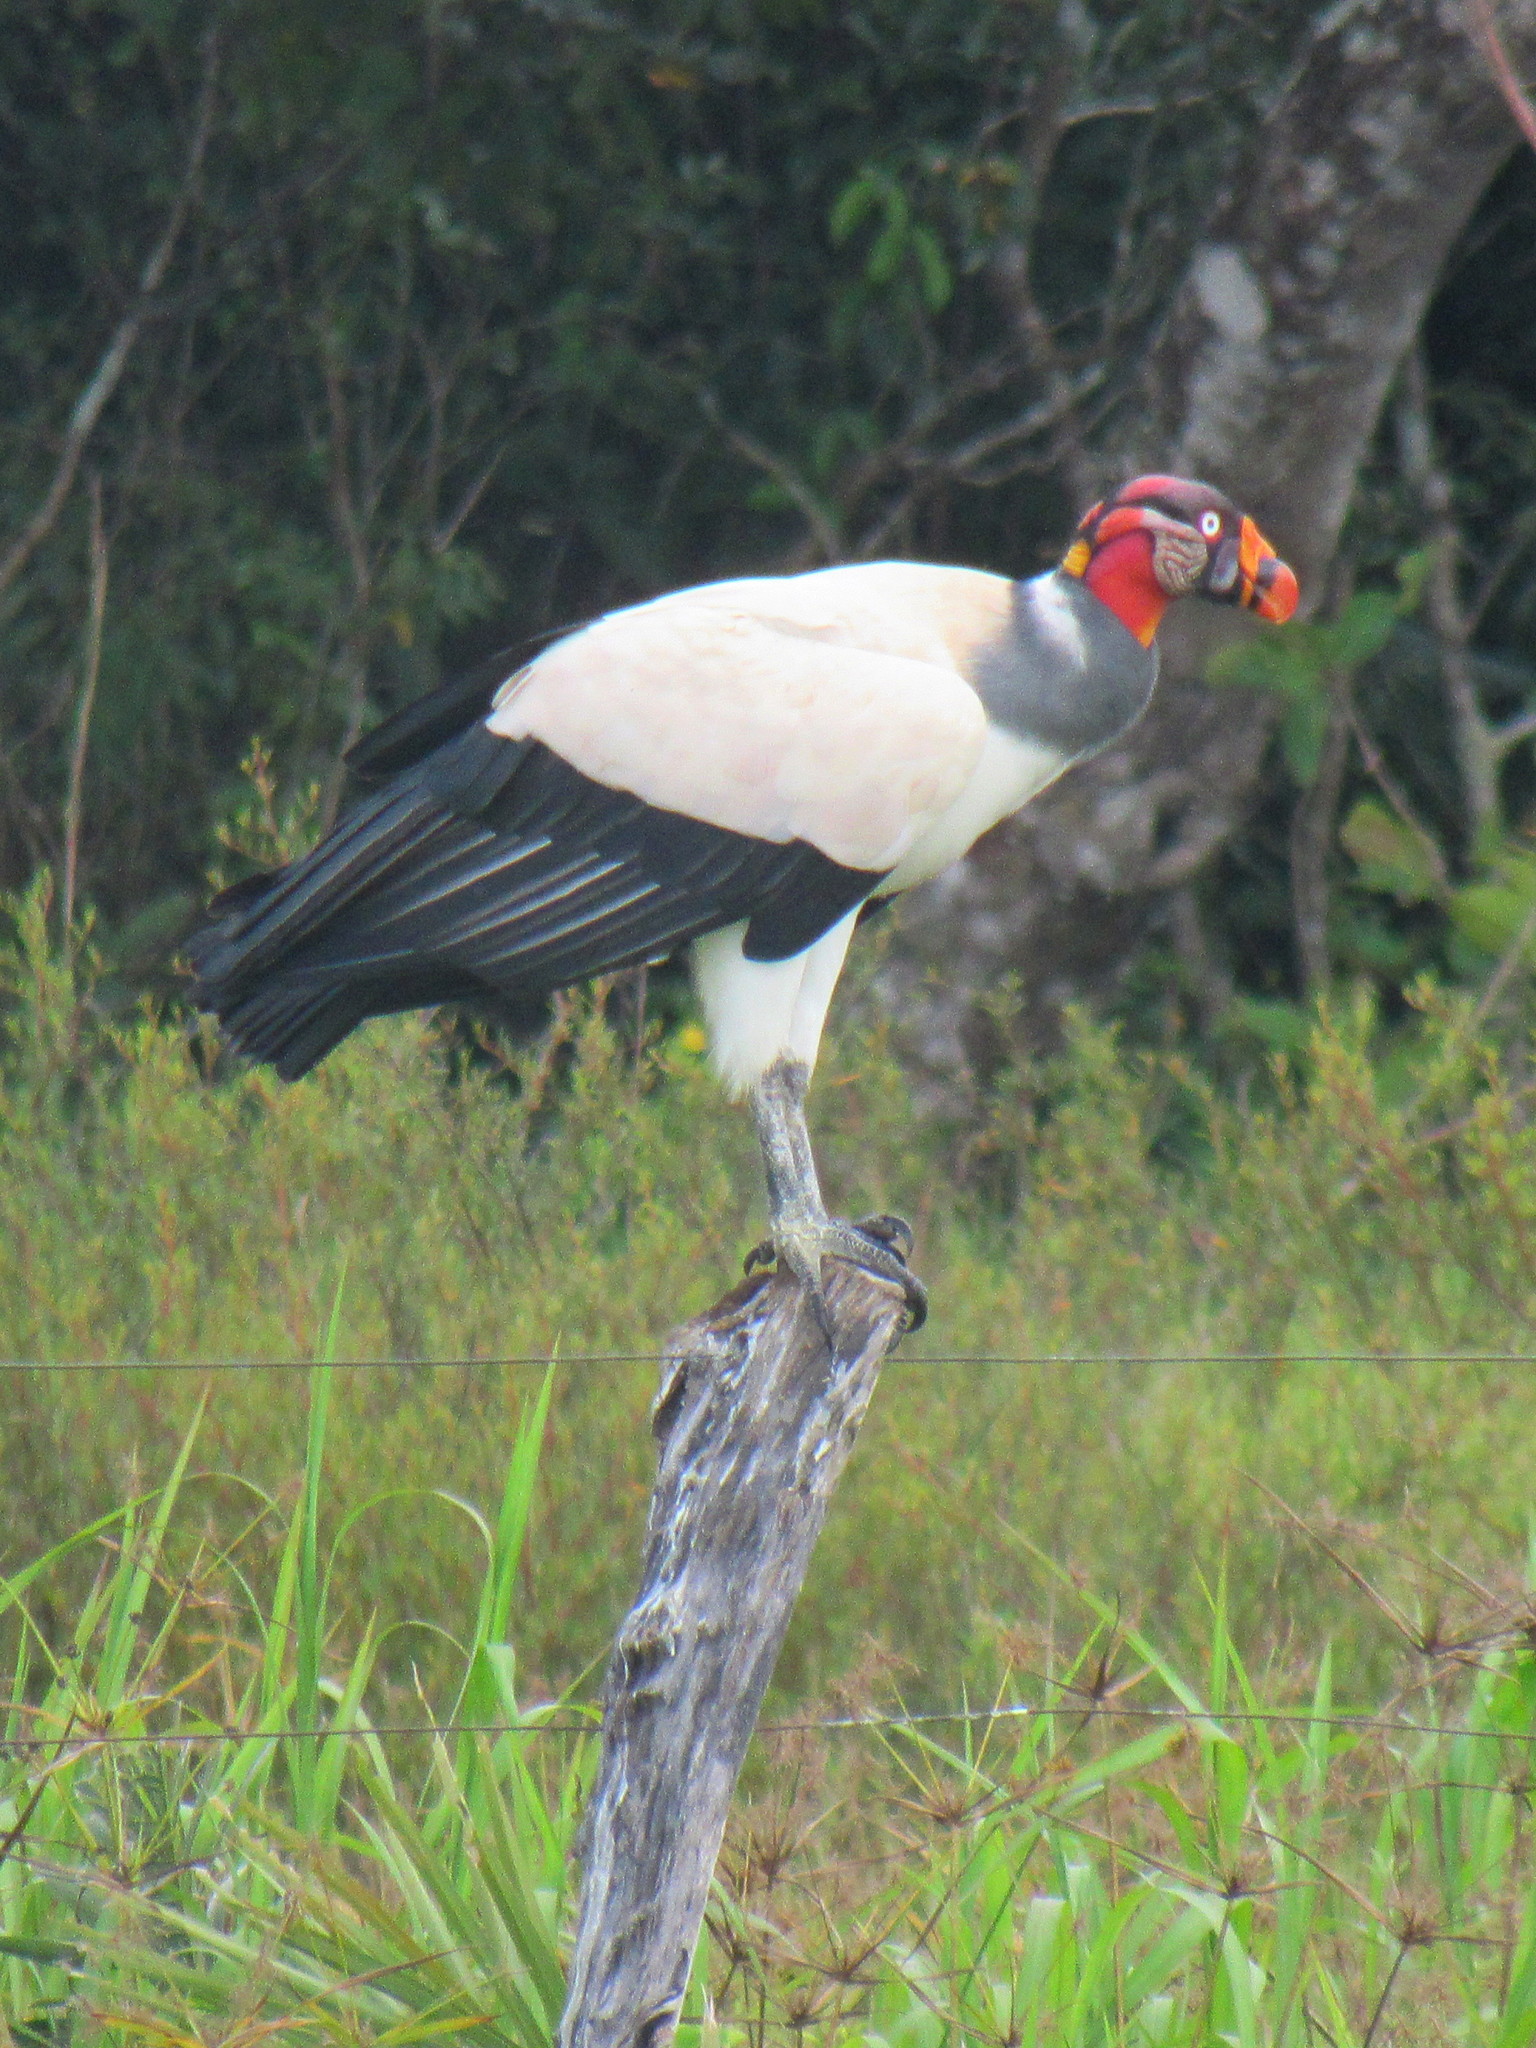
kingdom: Animalia
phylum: Chordata
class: Aves
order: Accipitriformes
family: Cathartidae
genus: Sarcoramphus
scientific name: Sarcoramphus papa
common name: King vulture
